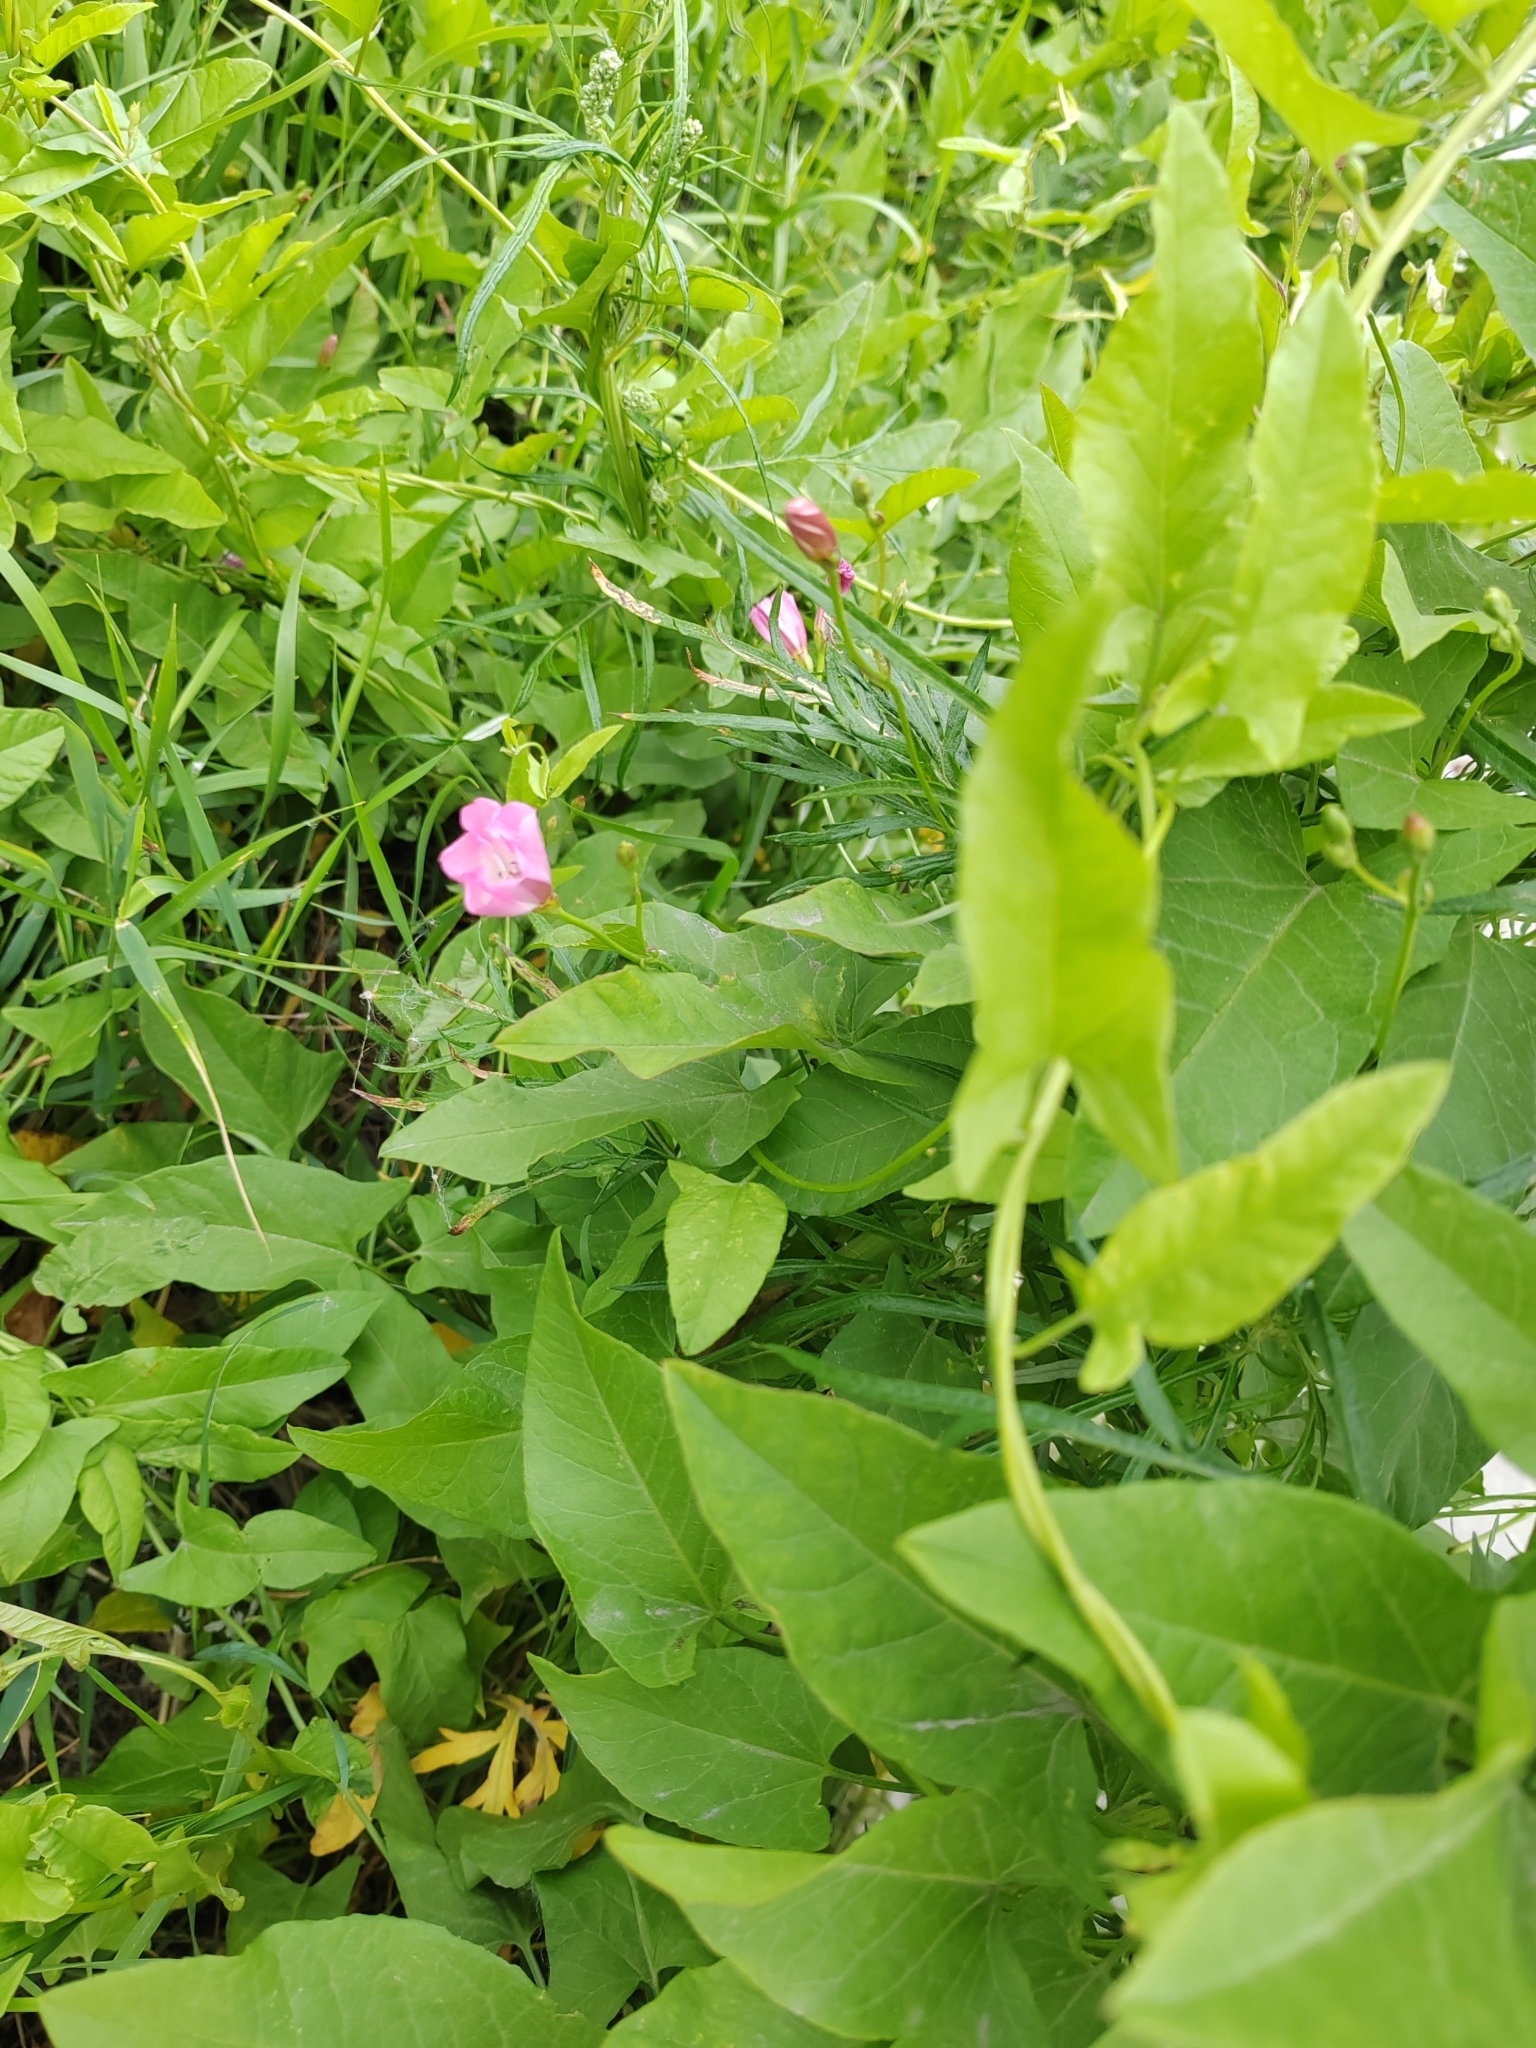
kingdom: Plantae
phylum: Tracheophyta
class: Magnoliopsida
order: Solanales
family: Convolvulaceae
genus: Convolvulus
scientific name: Convolvulus arvensis
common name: Field bindweed
